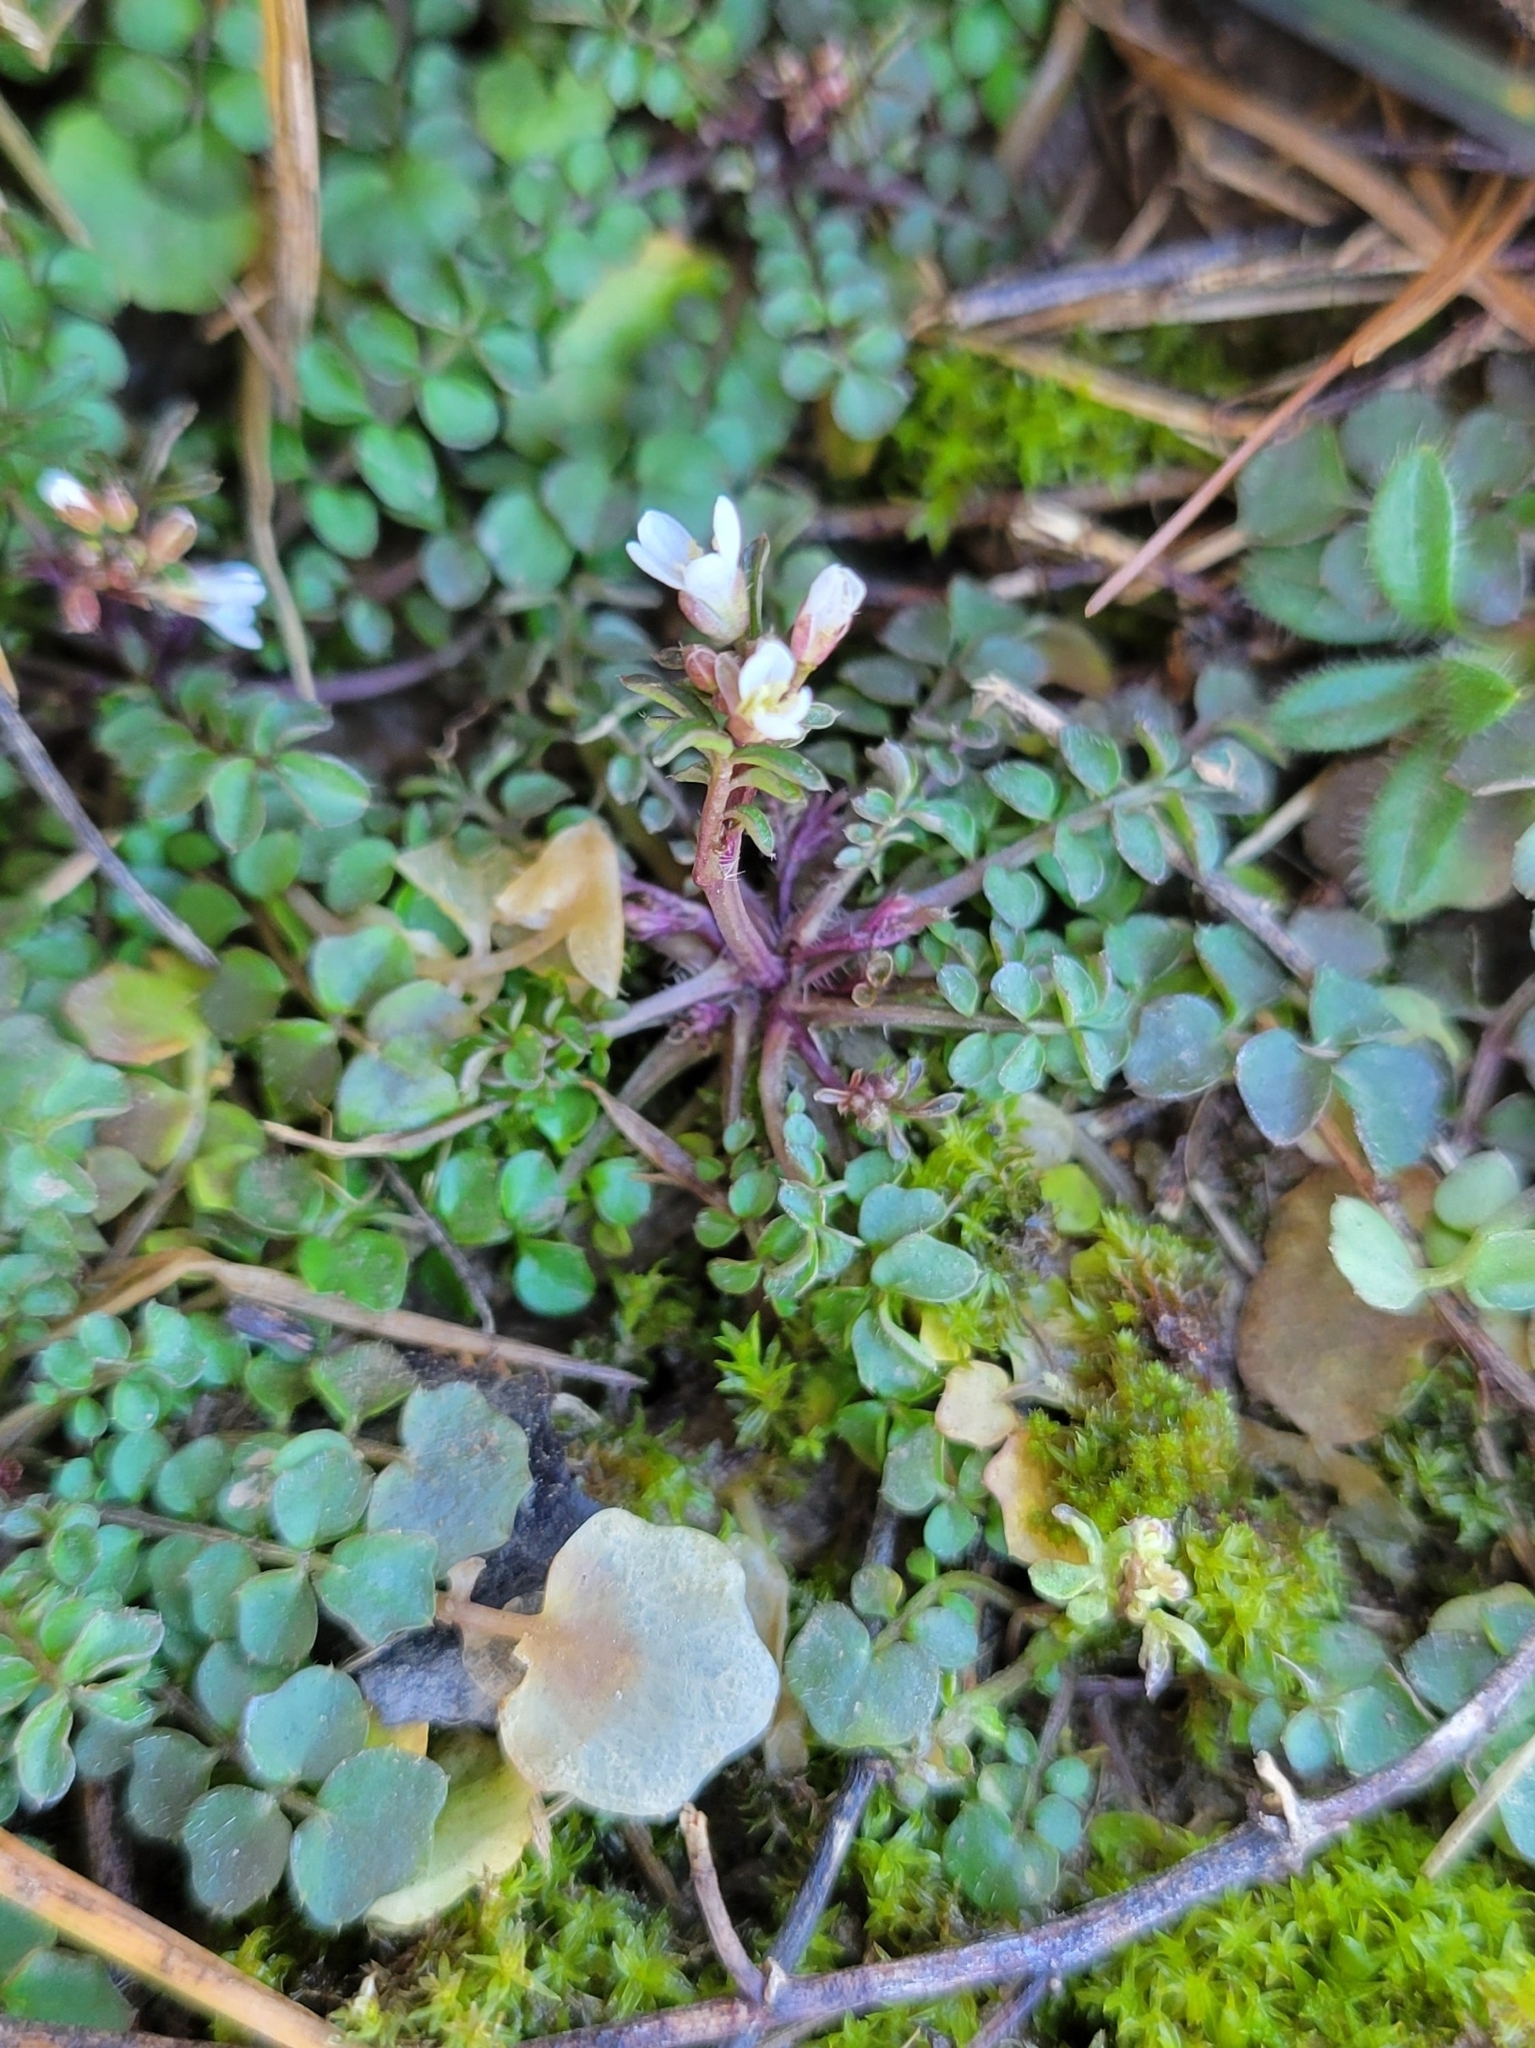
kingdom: Plantae
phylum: Tracheophyta
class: Magnoliopsida
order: Brassicales
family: Brassicaceae
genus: Cardamine
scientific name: Cardamine hirsuta
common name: Hairy bittercress
